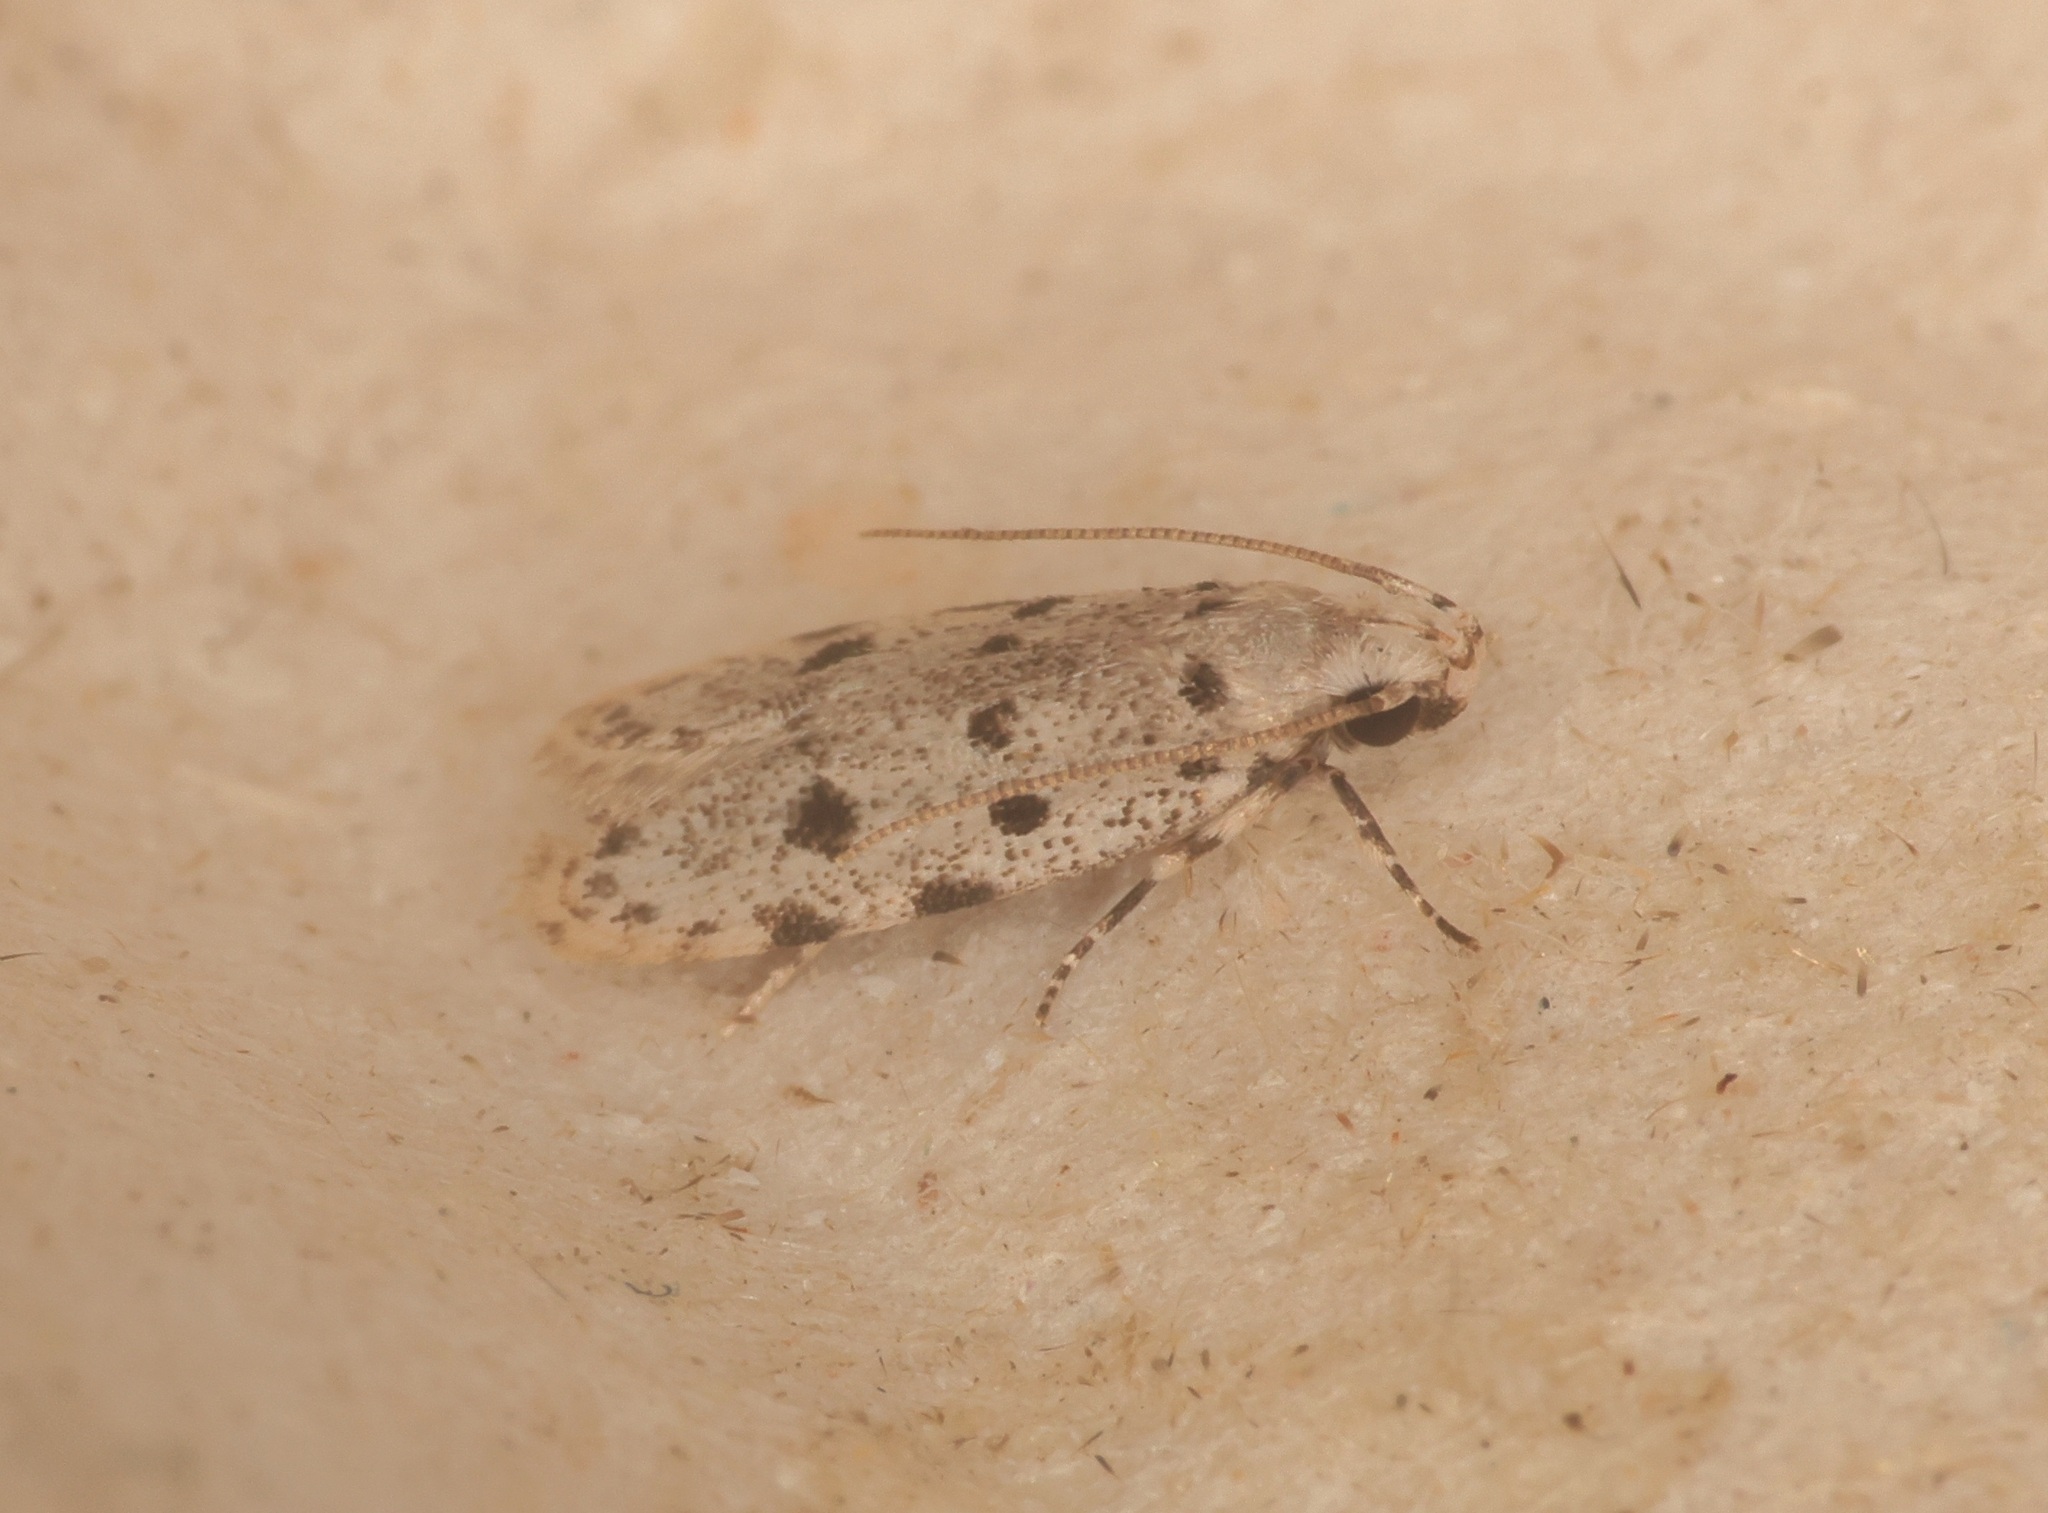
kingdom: Animalia
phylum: Arthropoda
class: Insecta
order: Lepidoptera
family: Autostichidae
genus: Autosticha
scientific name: Autosticha calceata
